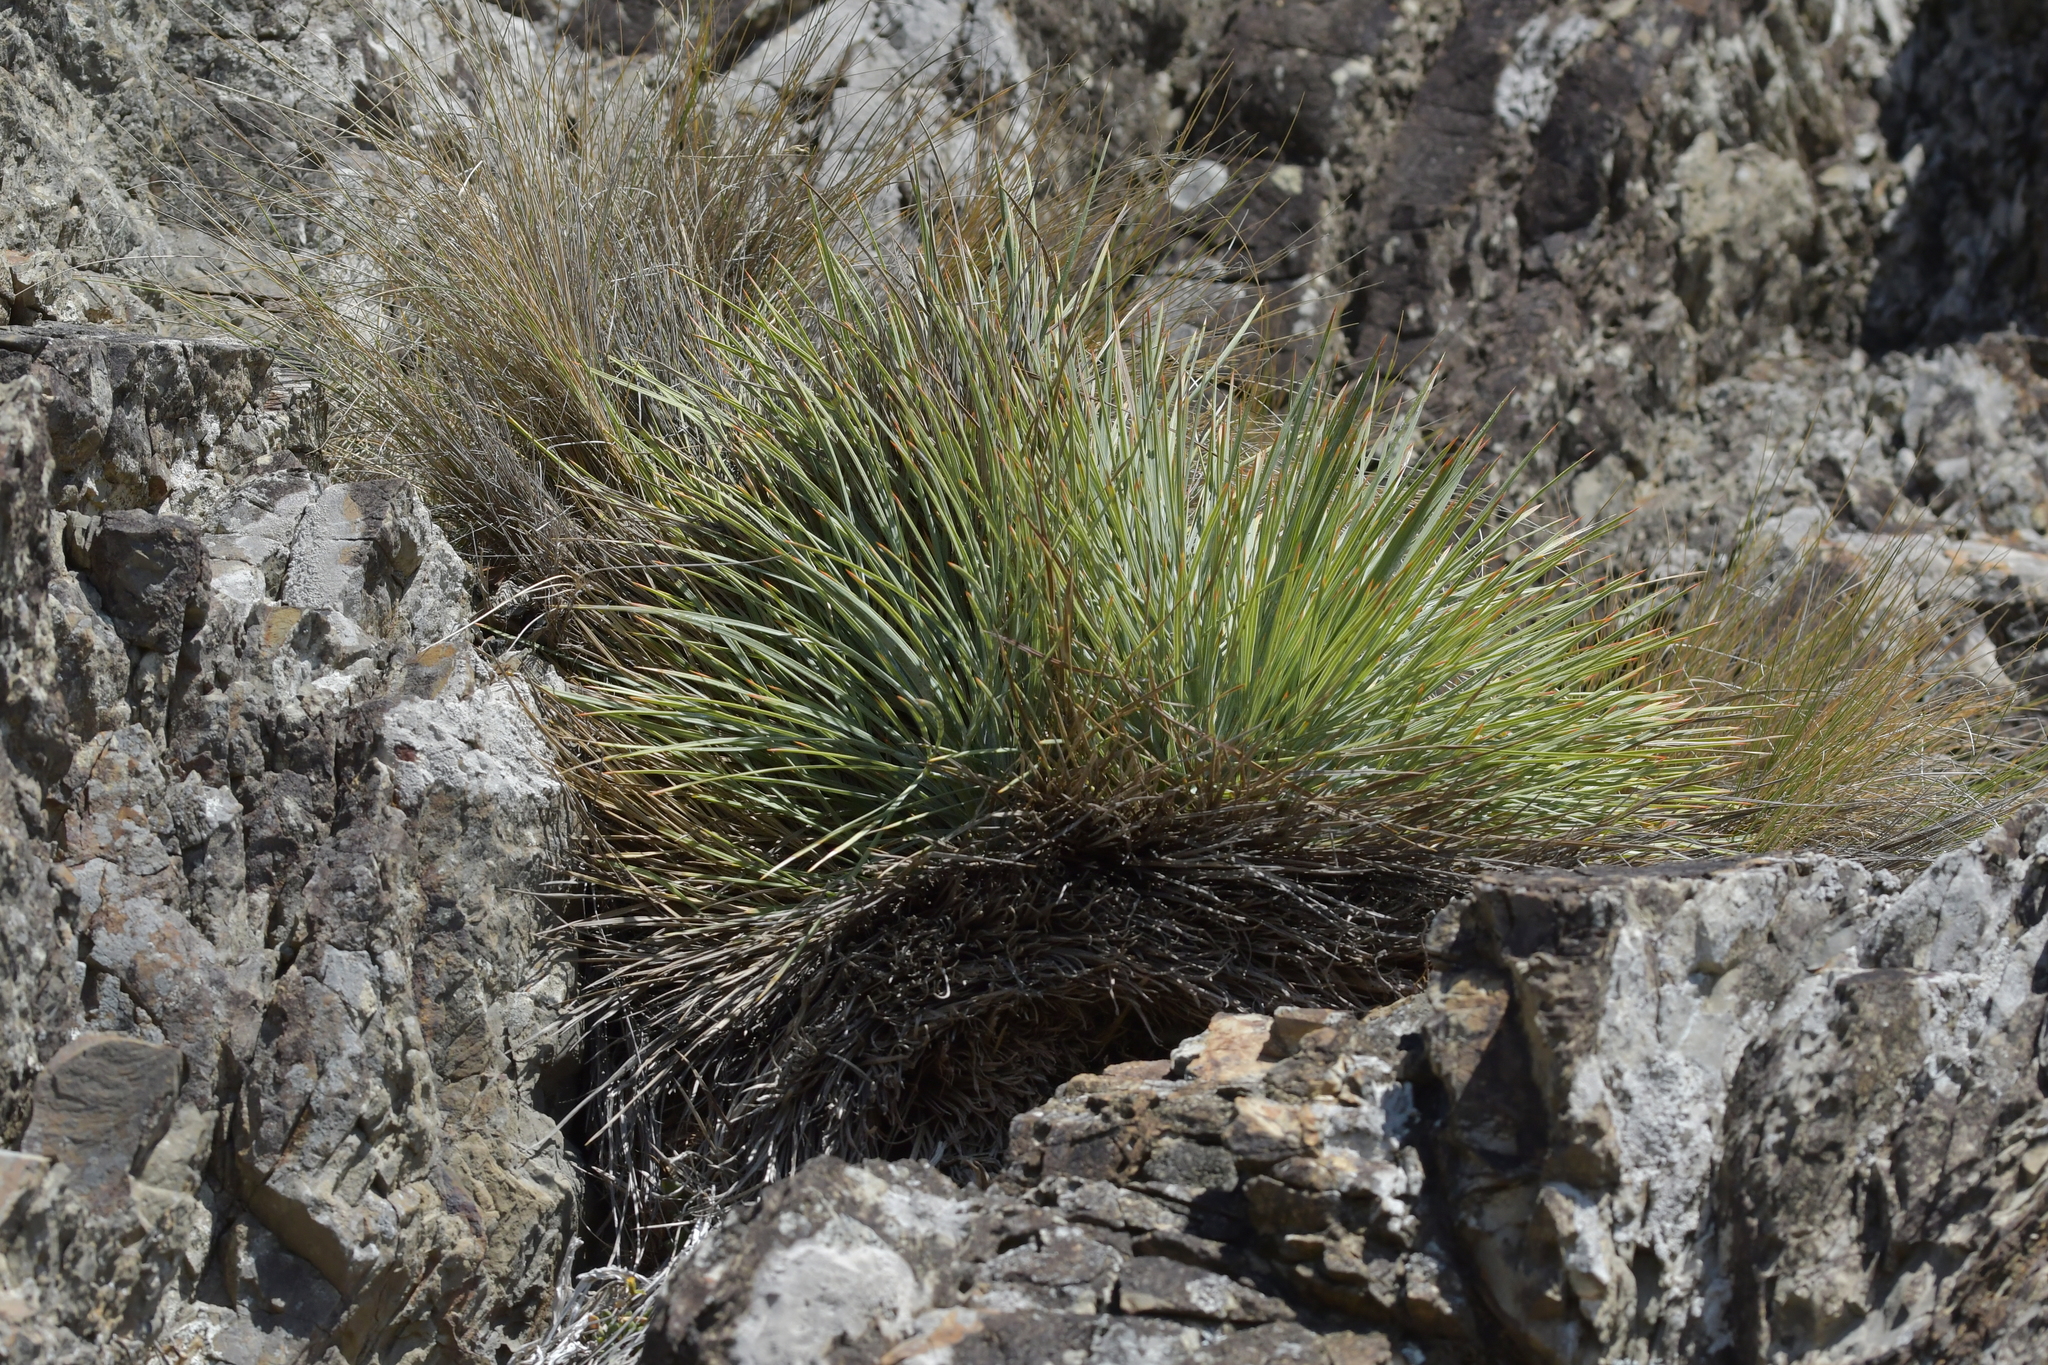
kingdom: Plantae
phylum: Tracheophyta
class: Magnoliopsida
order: Apiales
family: Apiaceae
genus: Aciphylla
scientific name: Aciphylla squarrosa
